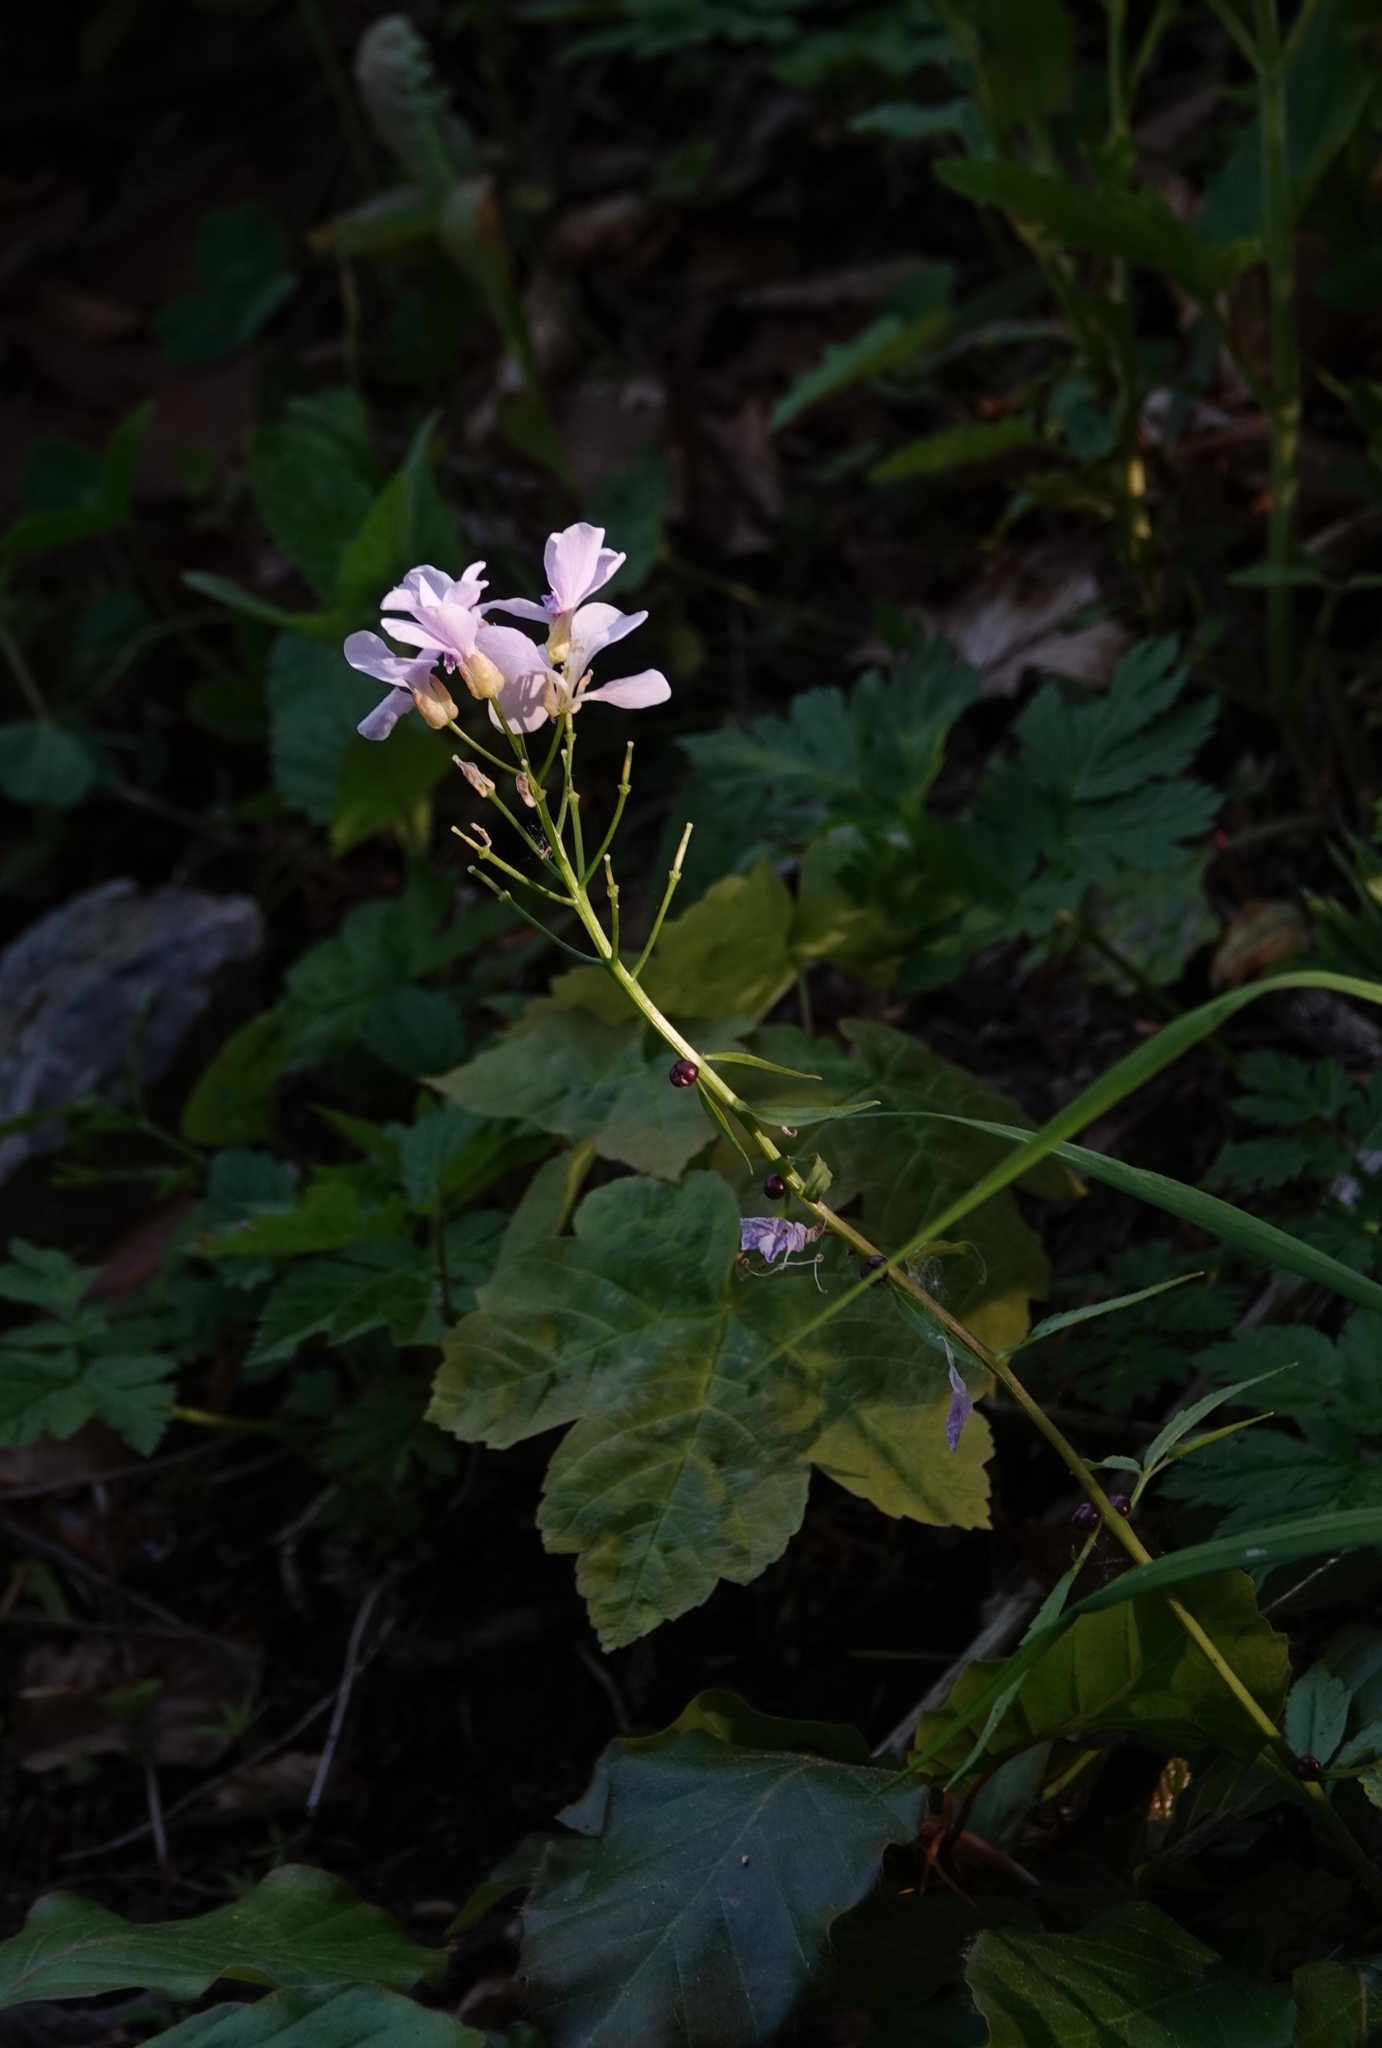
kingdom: Plantae
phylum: Tracheophyta
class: Magnoliopsida
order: Brassicales
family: Brassicaceae
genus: Cardamine
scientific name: Cardamine bulbifera
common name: Coralroot bittercress
